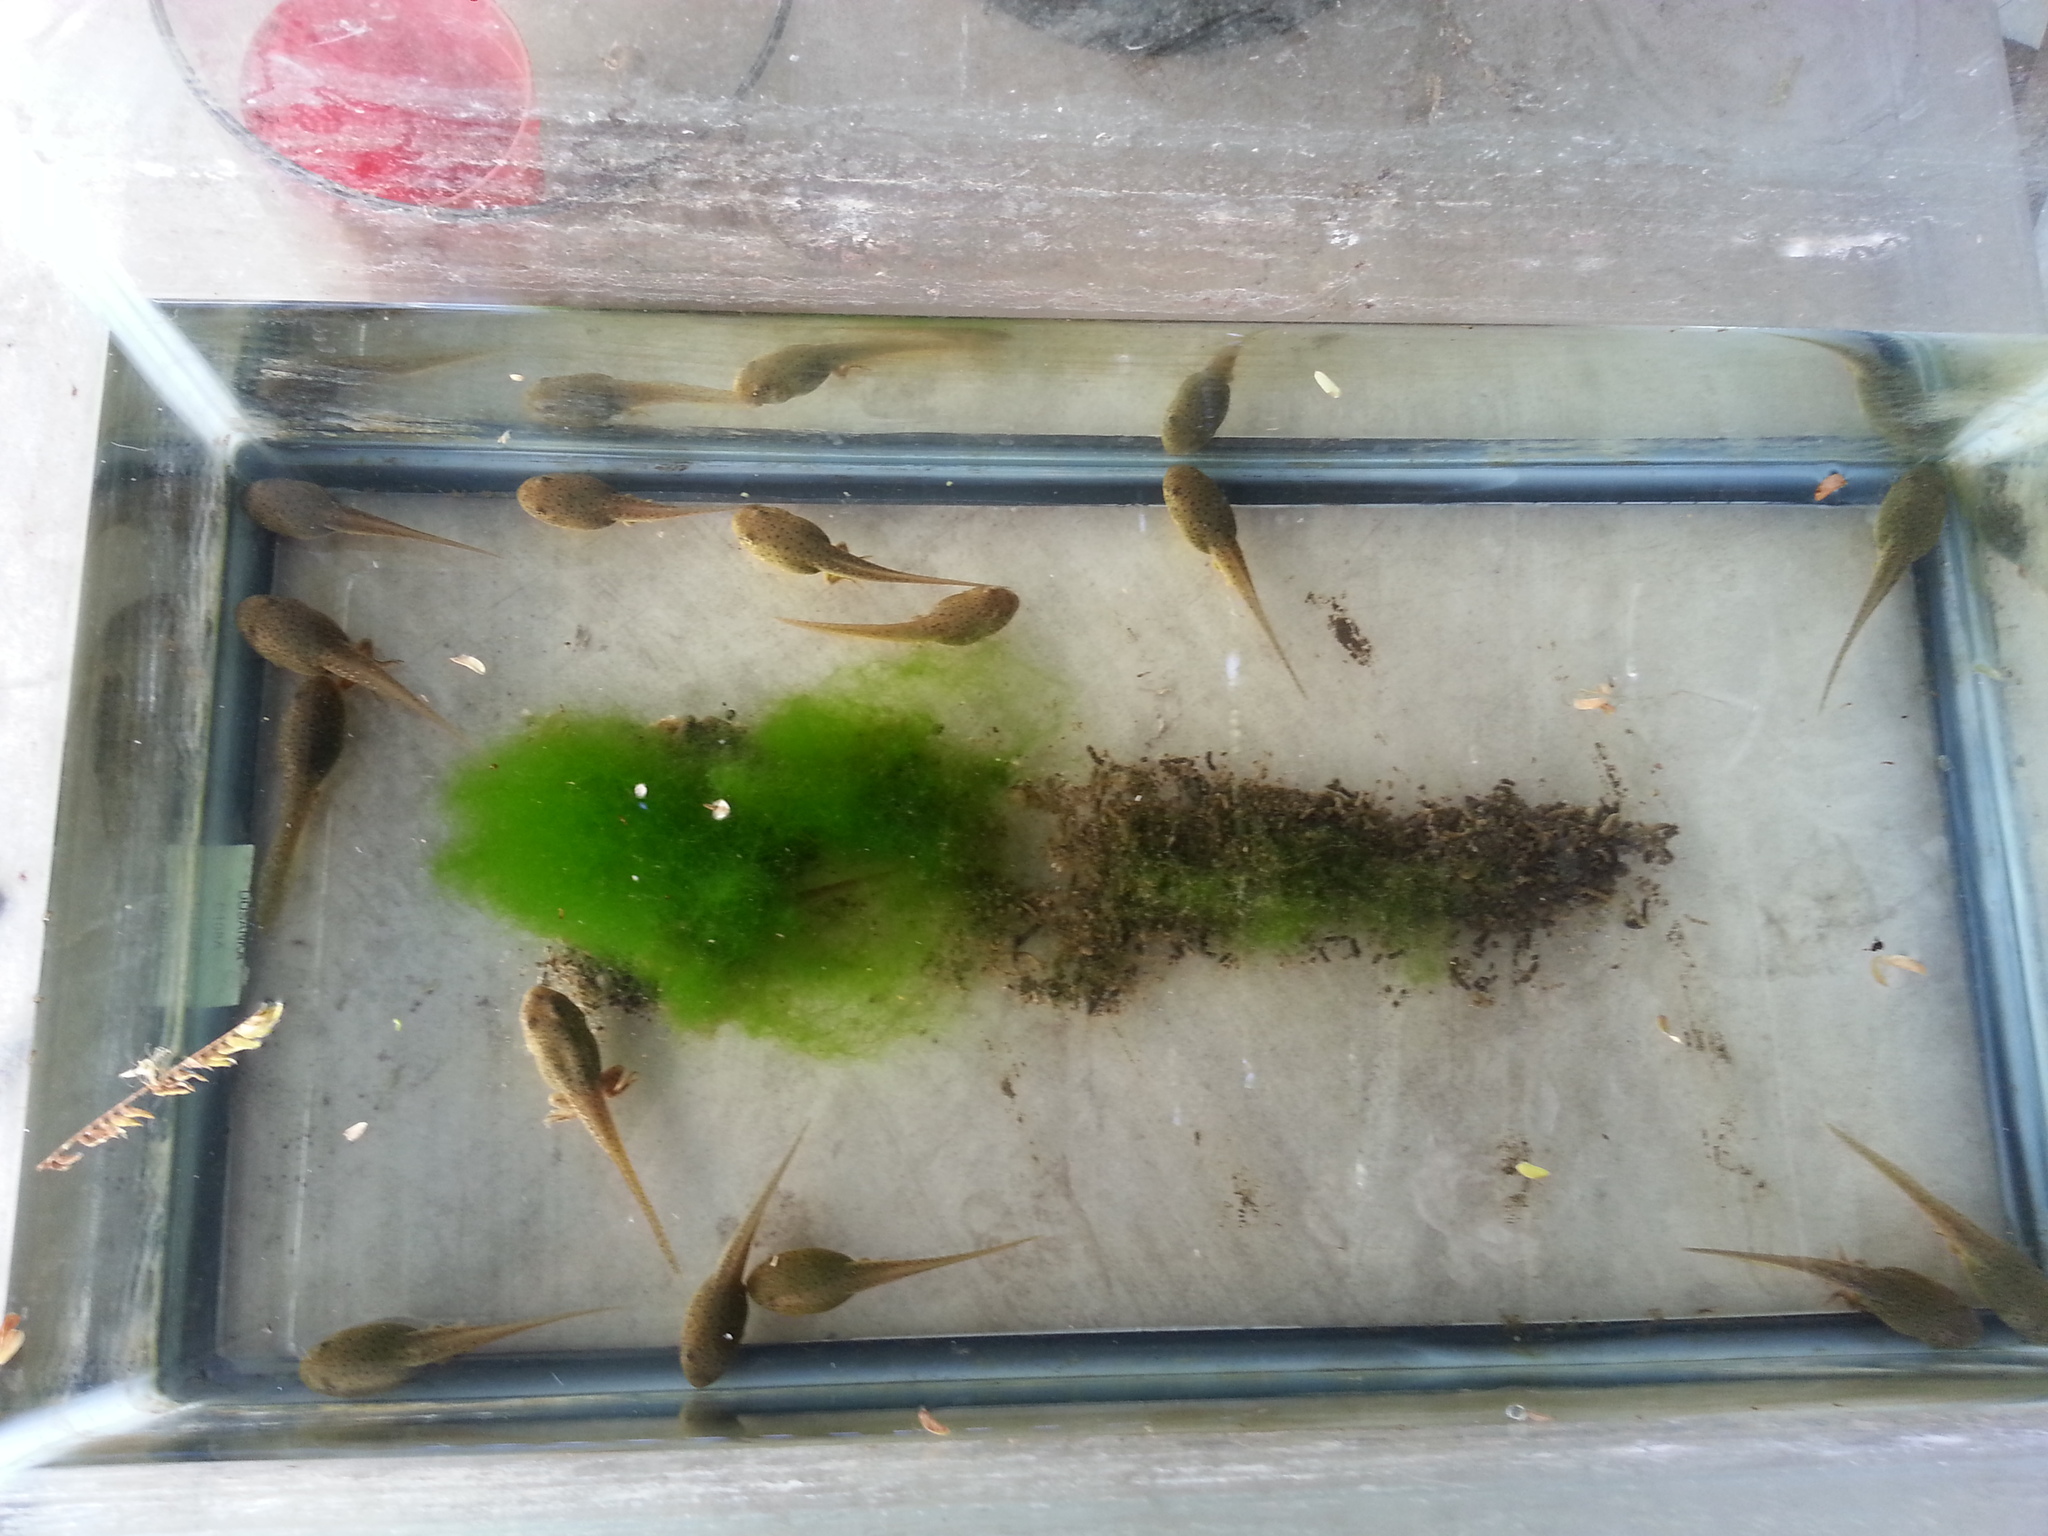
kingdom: Animalia
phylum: Chordata
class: Amphibia
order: Anura
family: Ranidae
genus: Lithobates
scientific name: Lithobates catesbeianus
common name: American bullfrog
